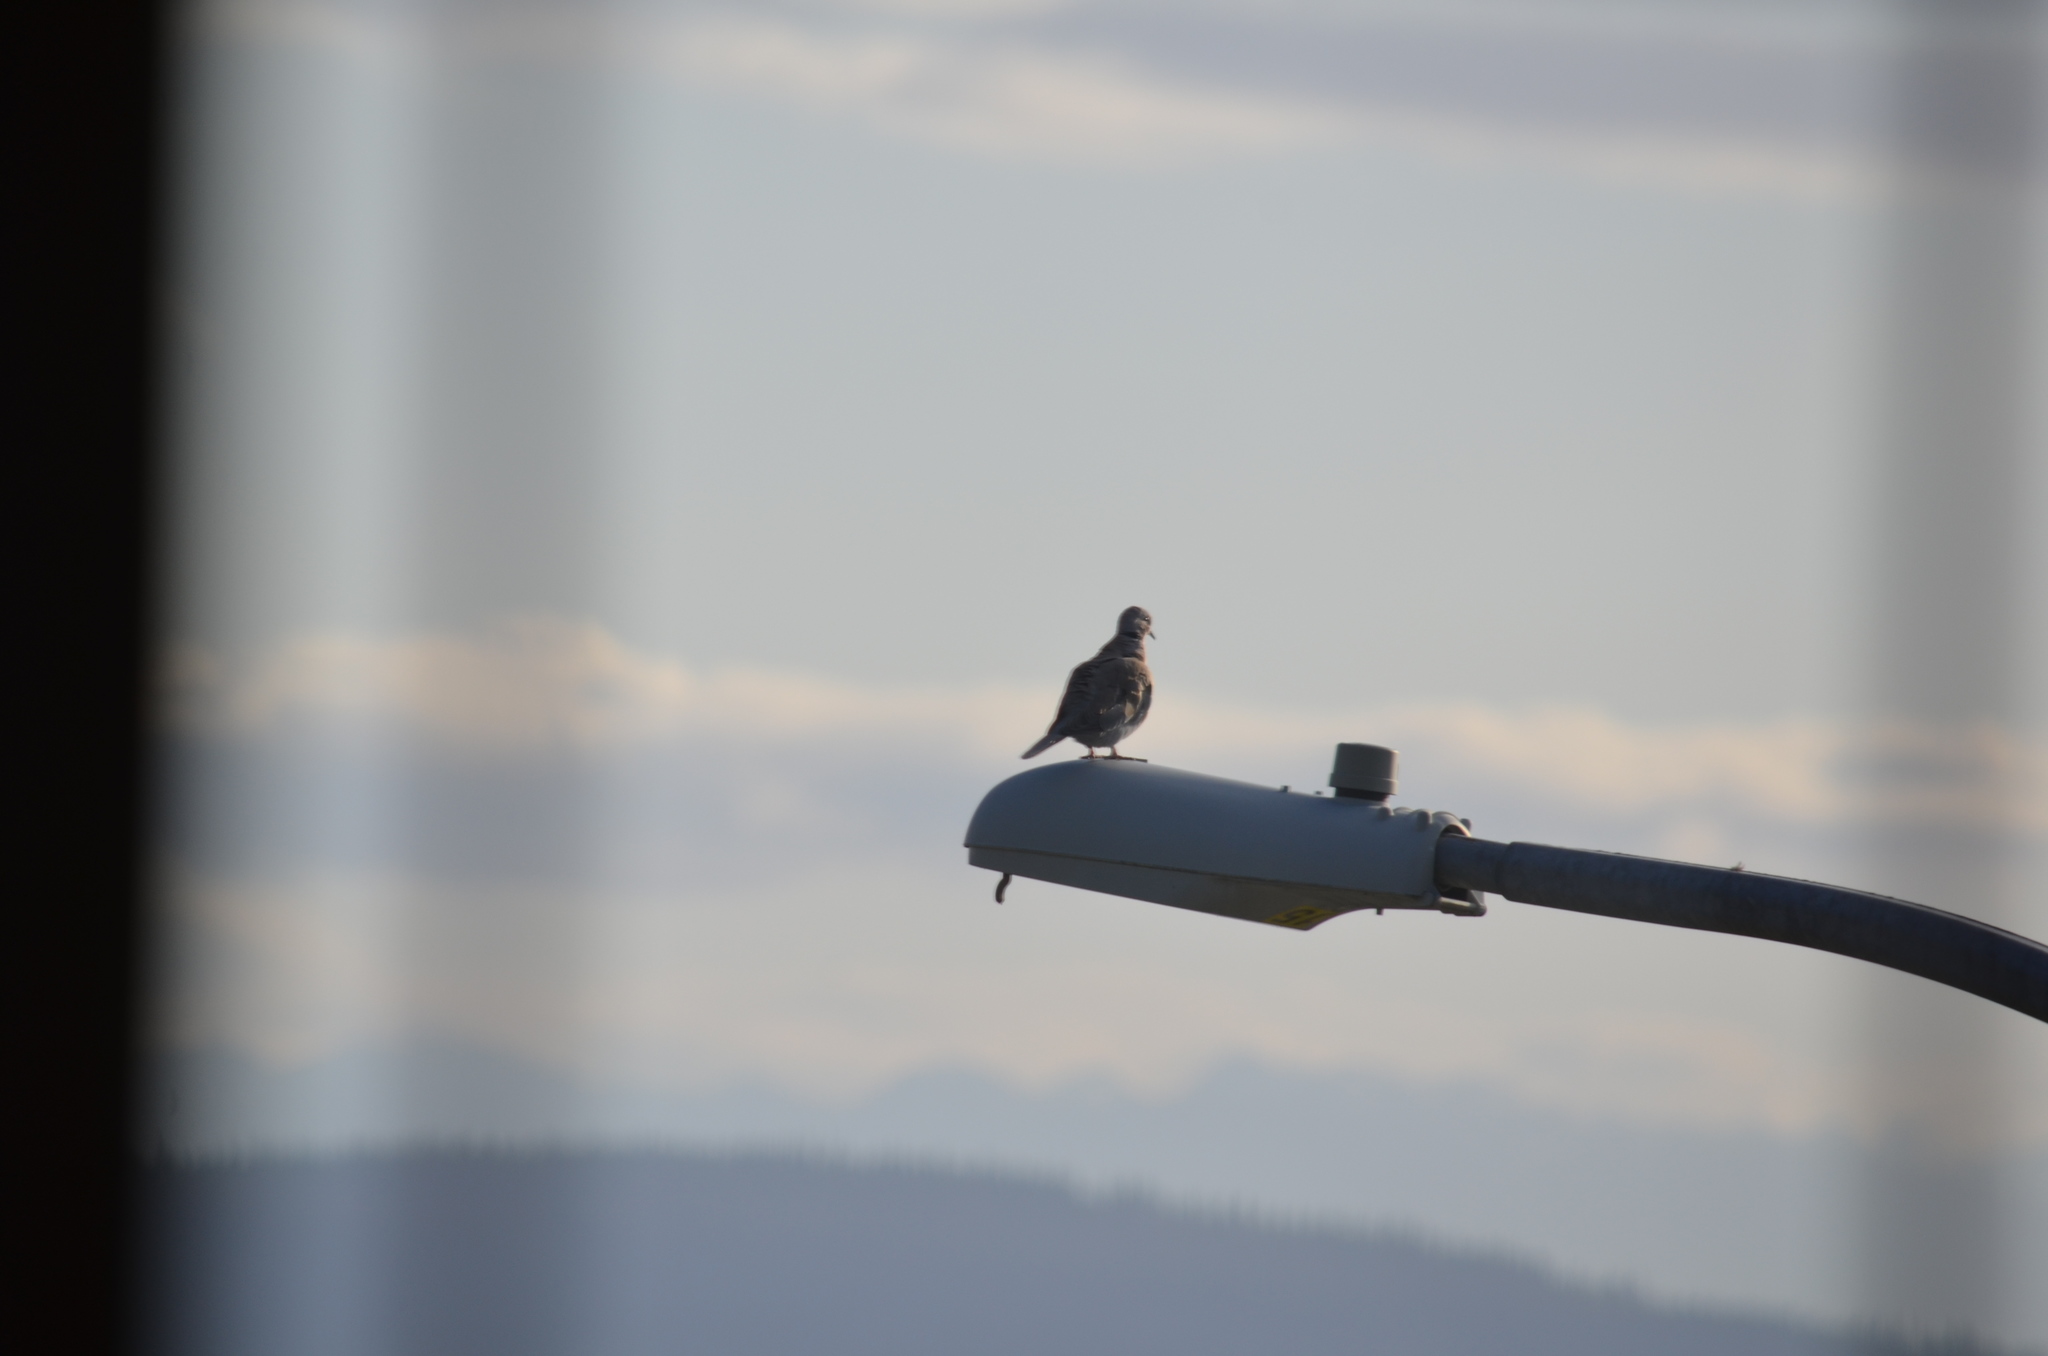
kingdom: Animalia
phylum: Chordata
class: Aves
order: Columbiformes
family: Columbidae
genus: Streptopelia
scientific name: Streptopelia decaocto
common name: Eurasian collared dove
